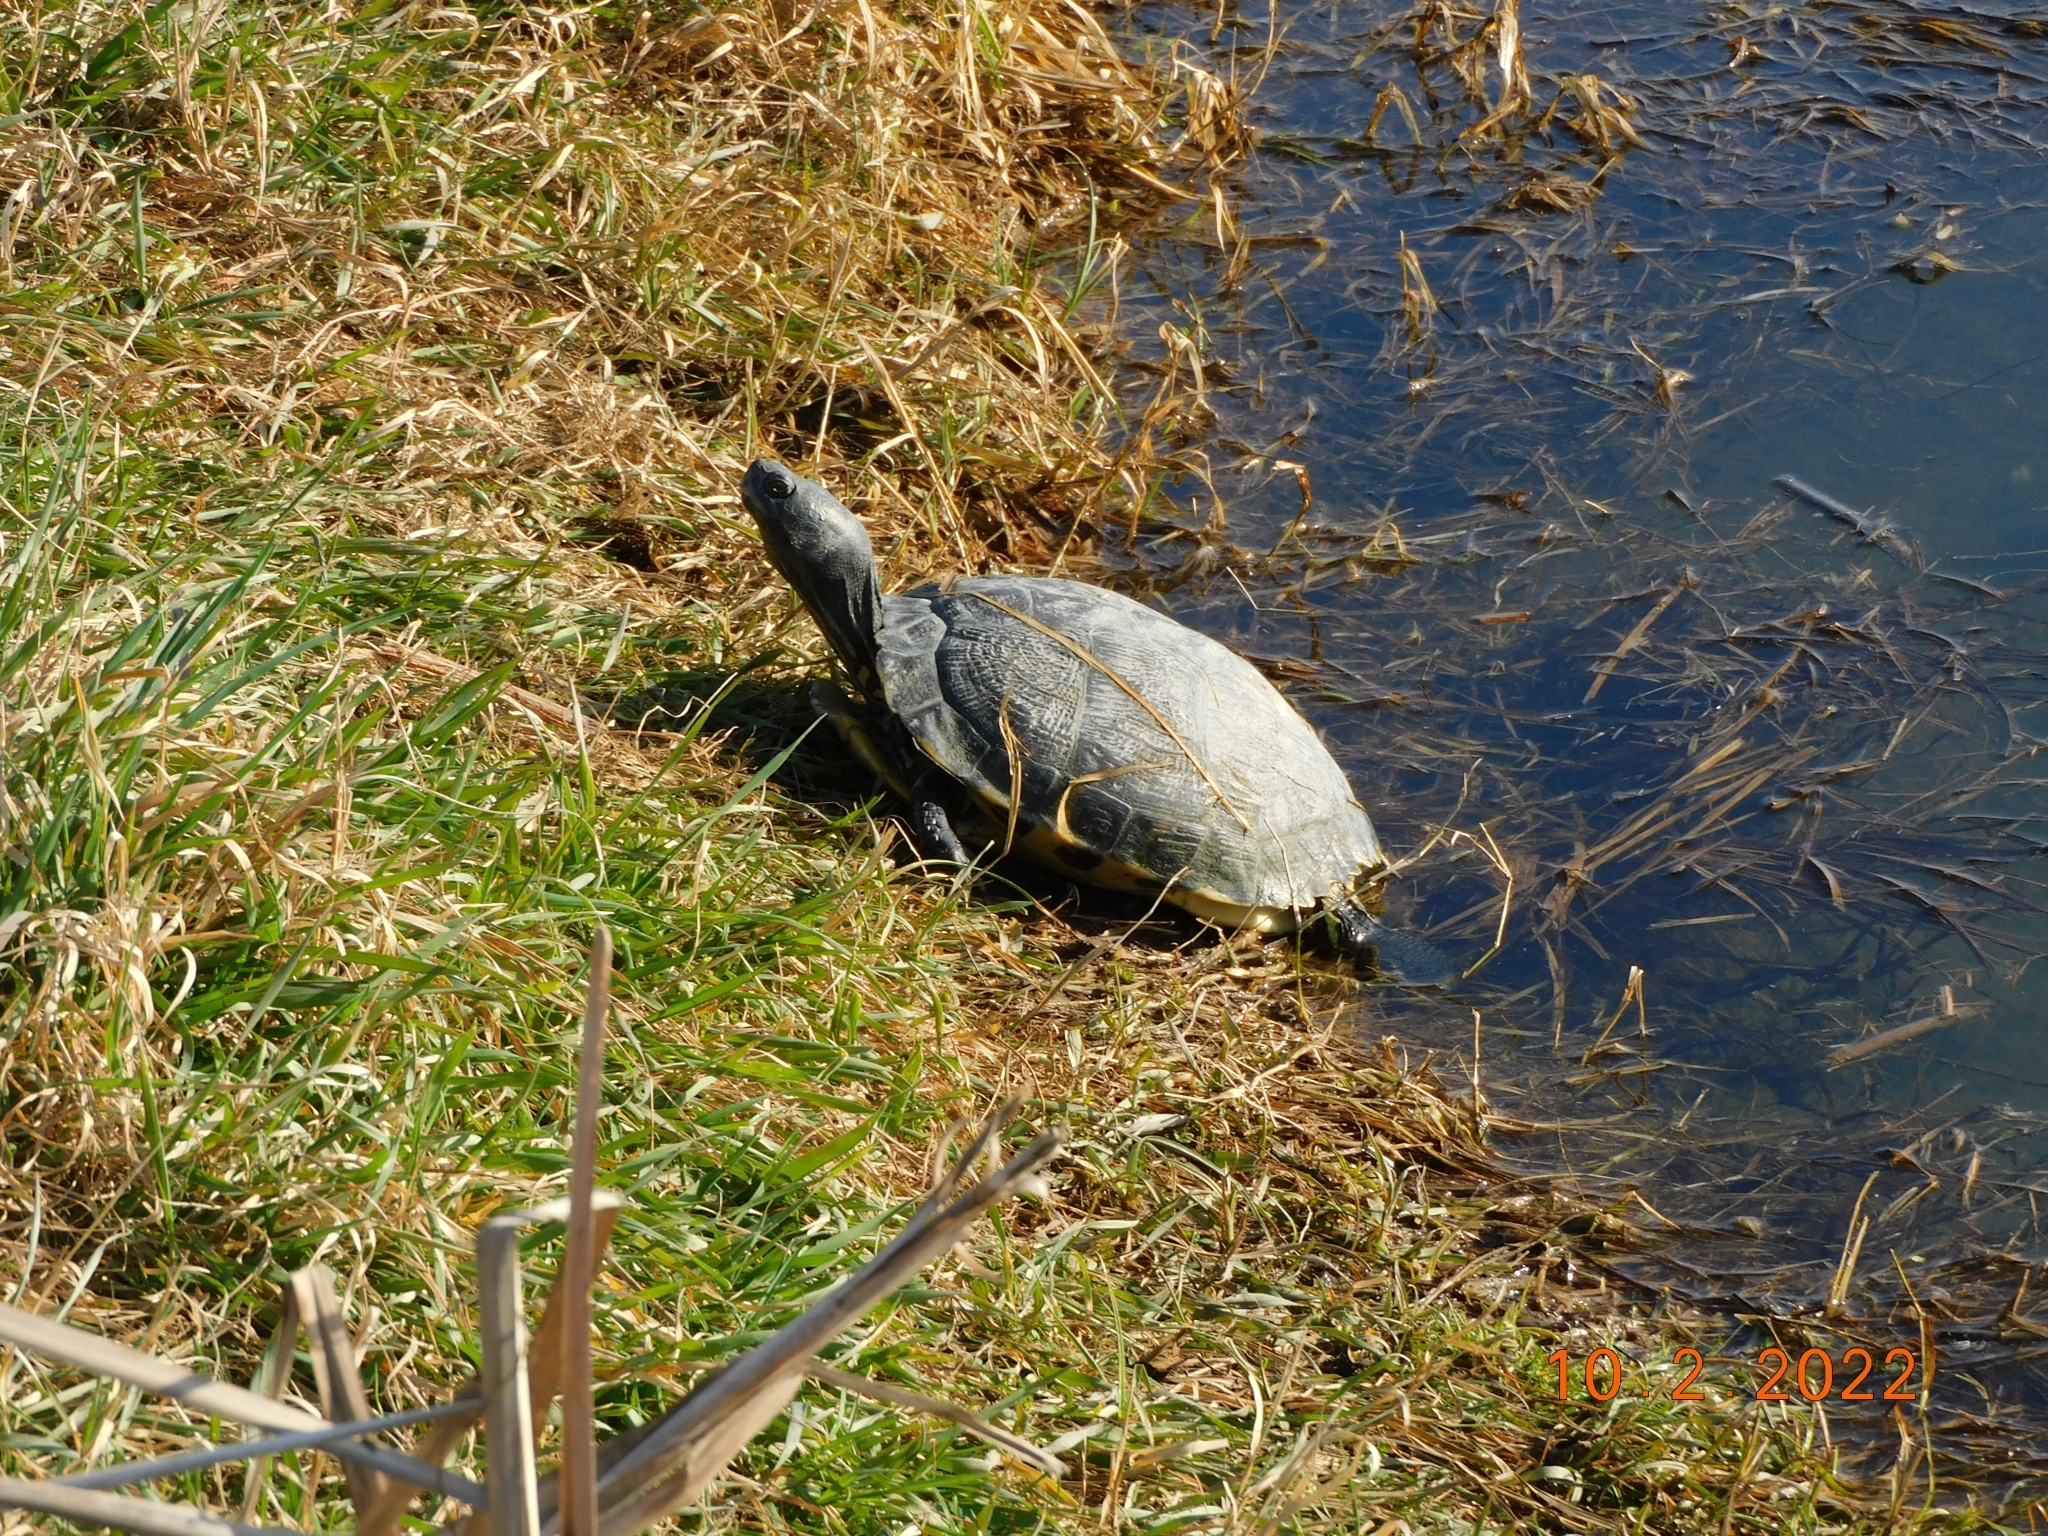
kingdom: Animalia
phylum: Chordata
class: Testudines
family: Emydidae
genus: Trachemys
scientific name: Trachemys scripta
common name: Slider
